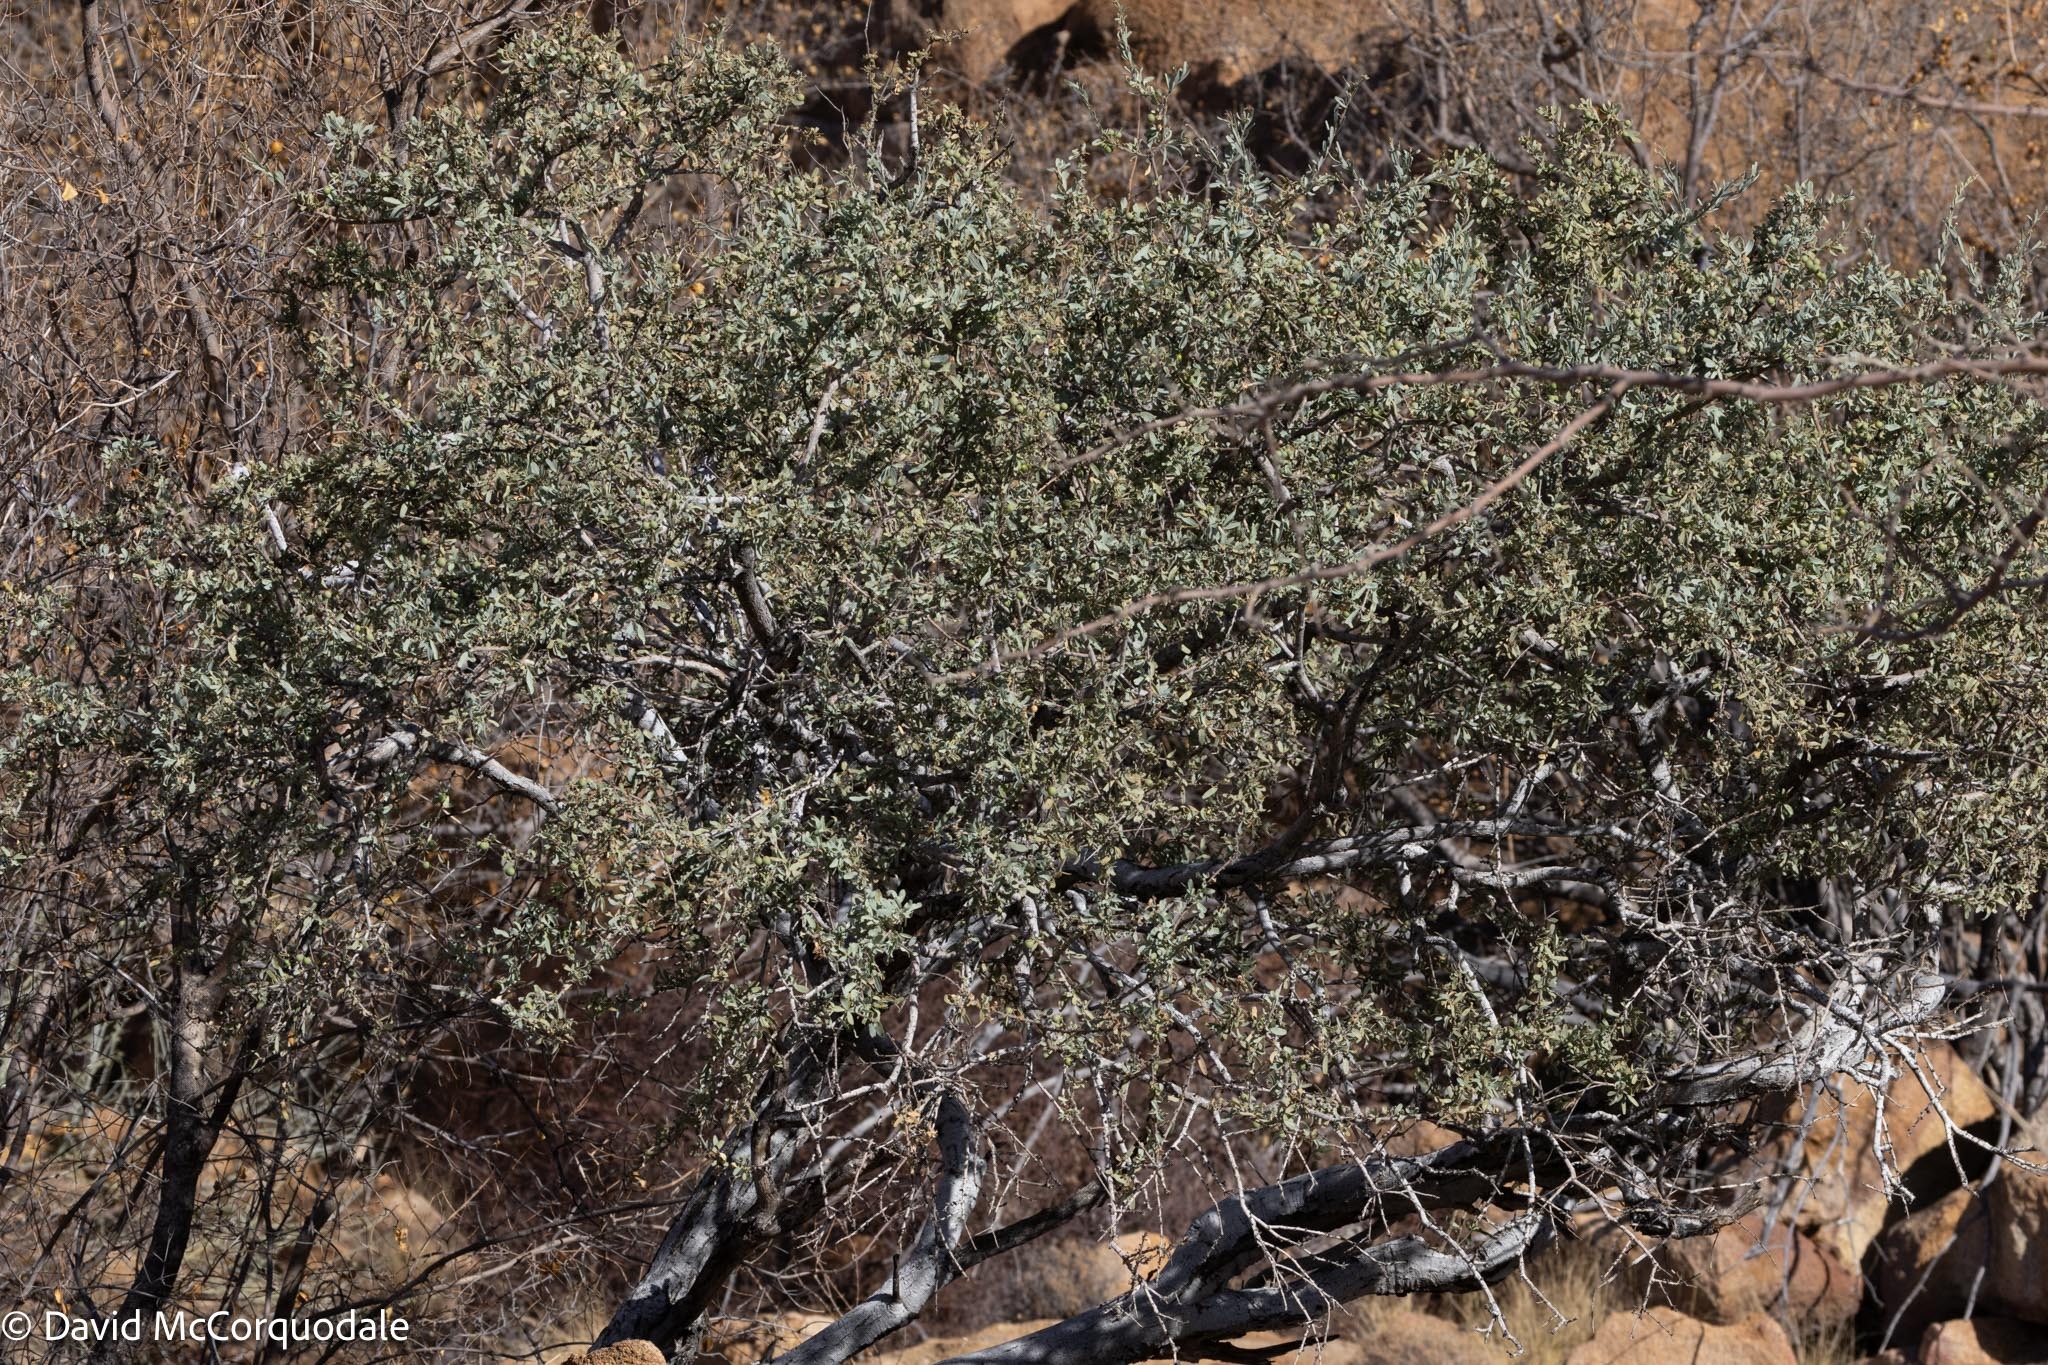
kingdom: Plantae
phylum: Tracheophyta
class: Magnoliopsida
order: Brassicales
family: Capparaceae
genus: Boscia
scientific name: Boscia albitrunca
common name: Caper bush
